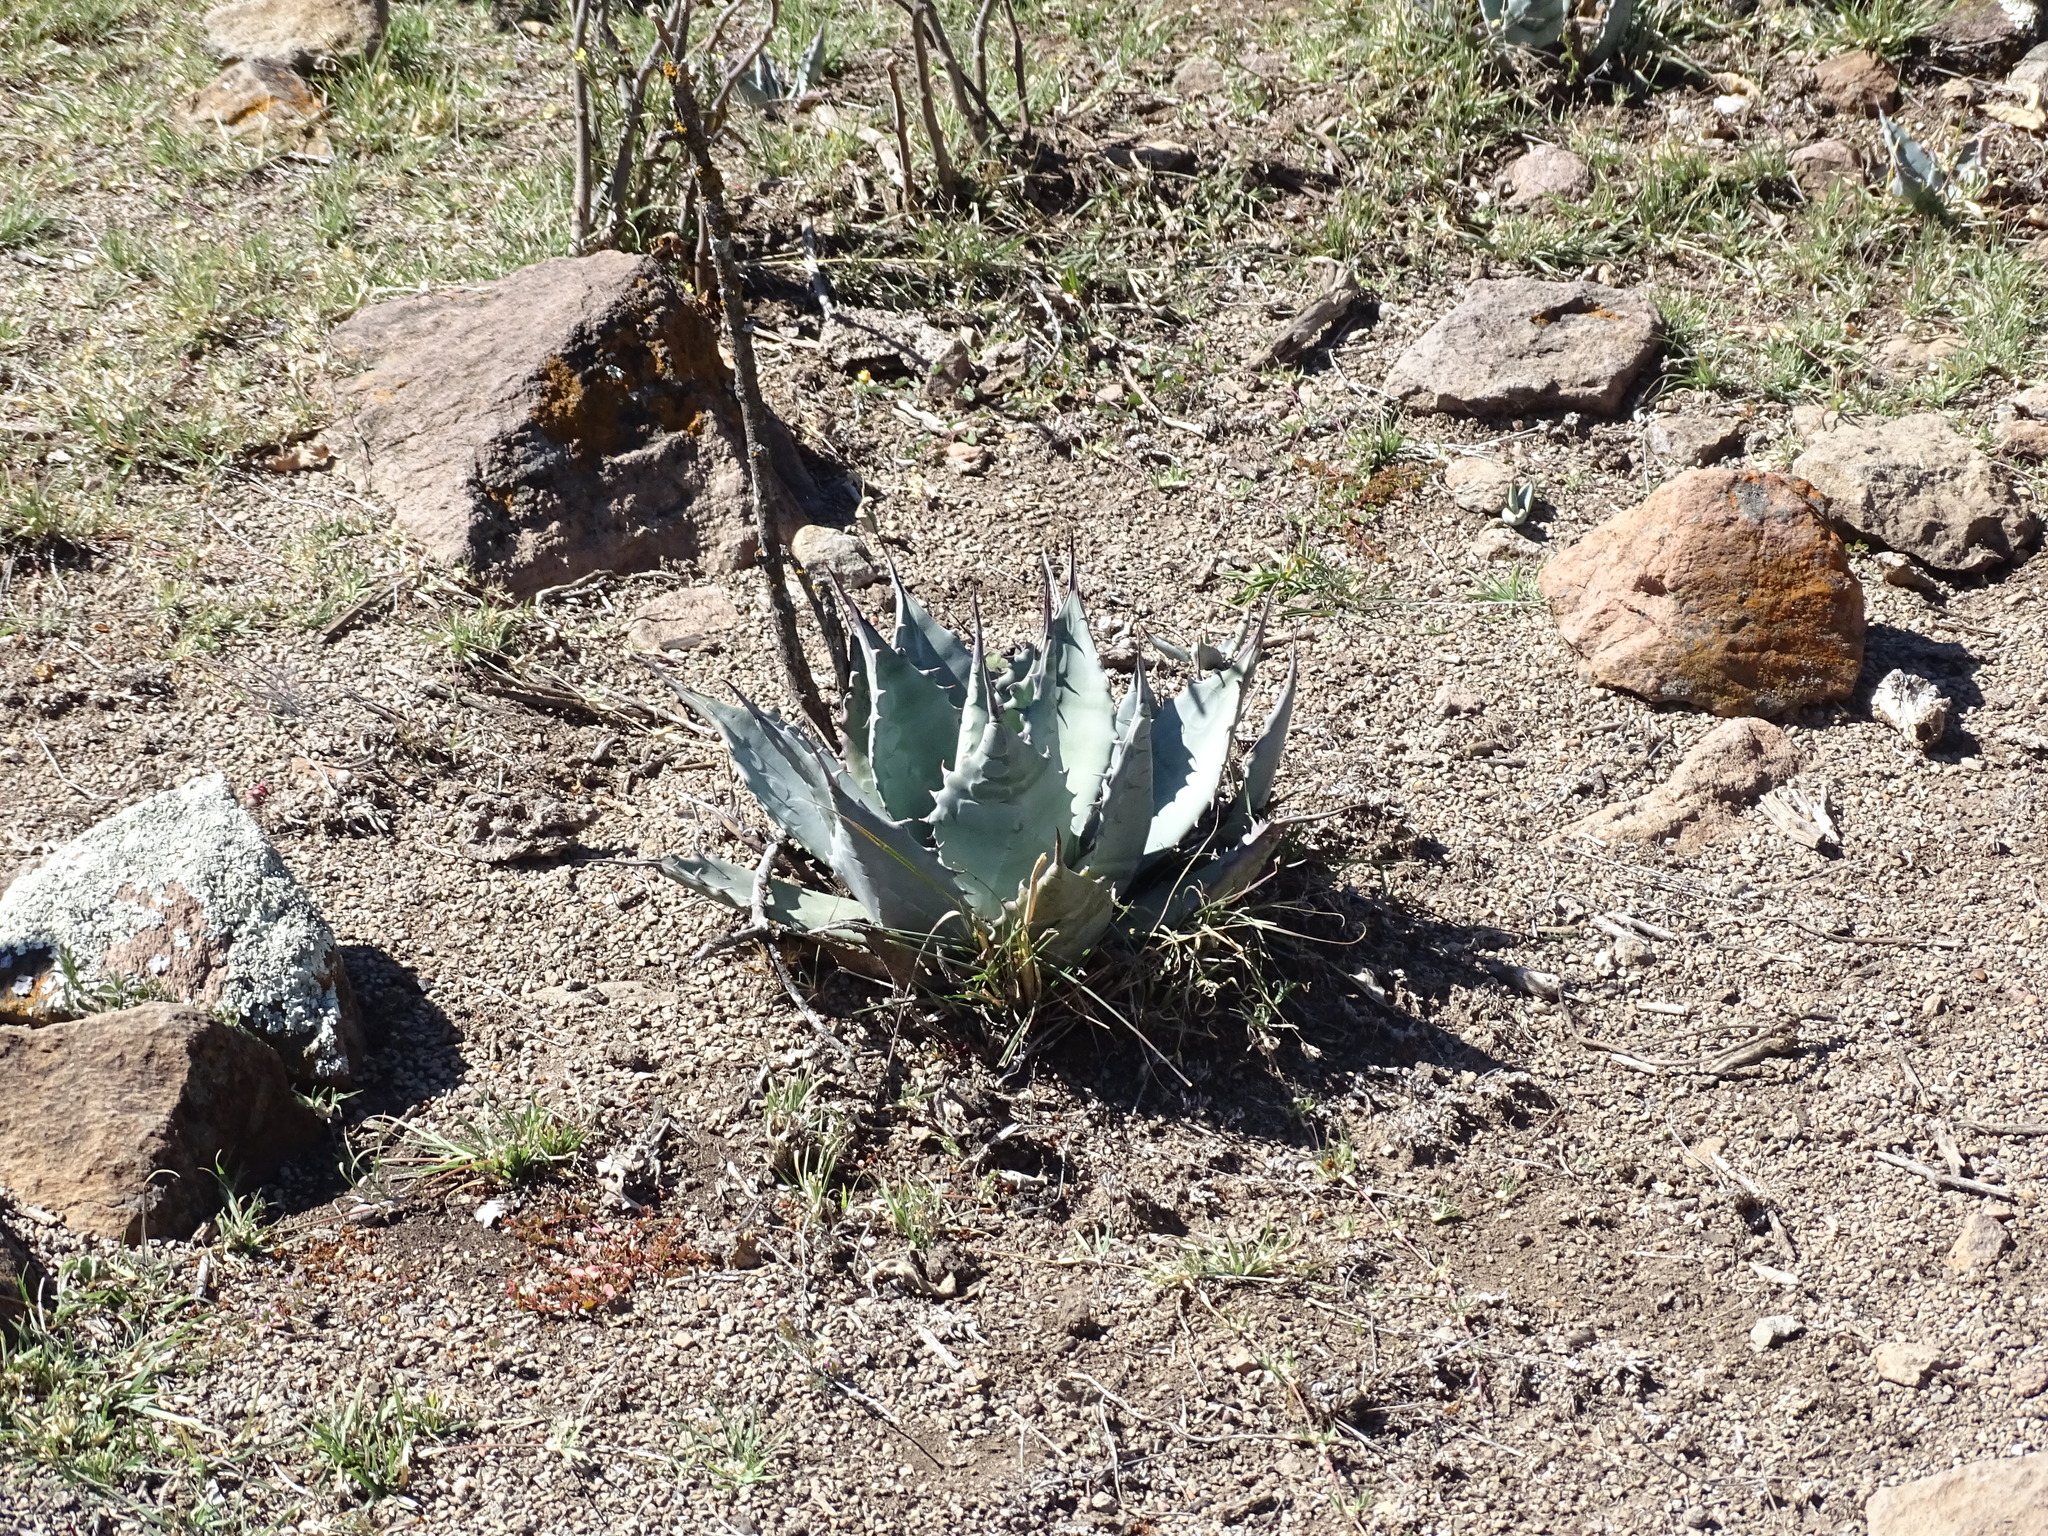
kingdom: Plantae
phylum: Tracheophyta
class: Liliopsida
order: Asparagales
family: Asparagaceae
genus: Agave
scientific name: Agave applanata
